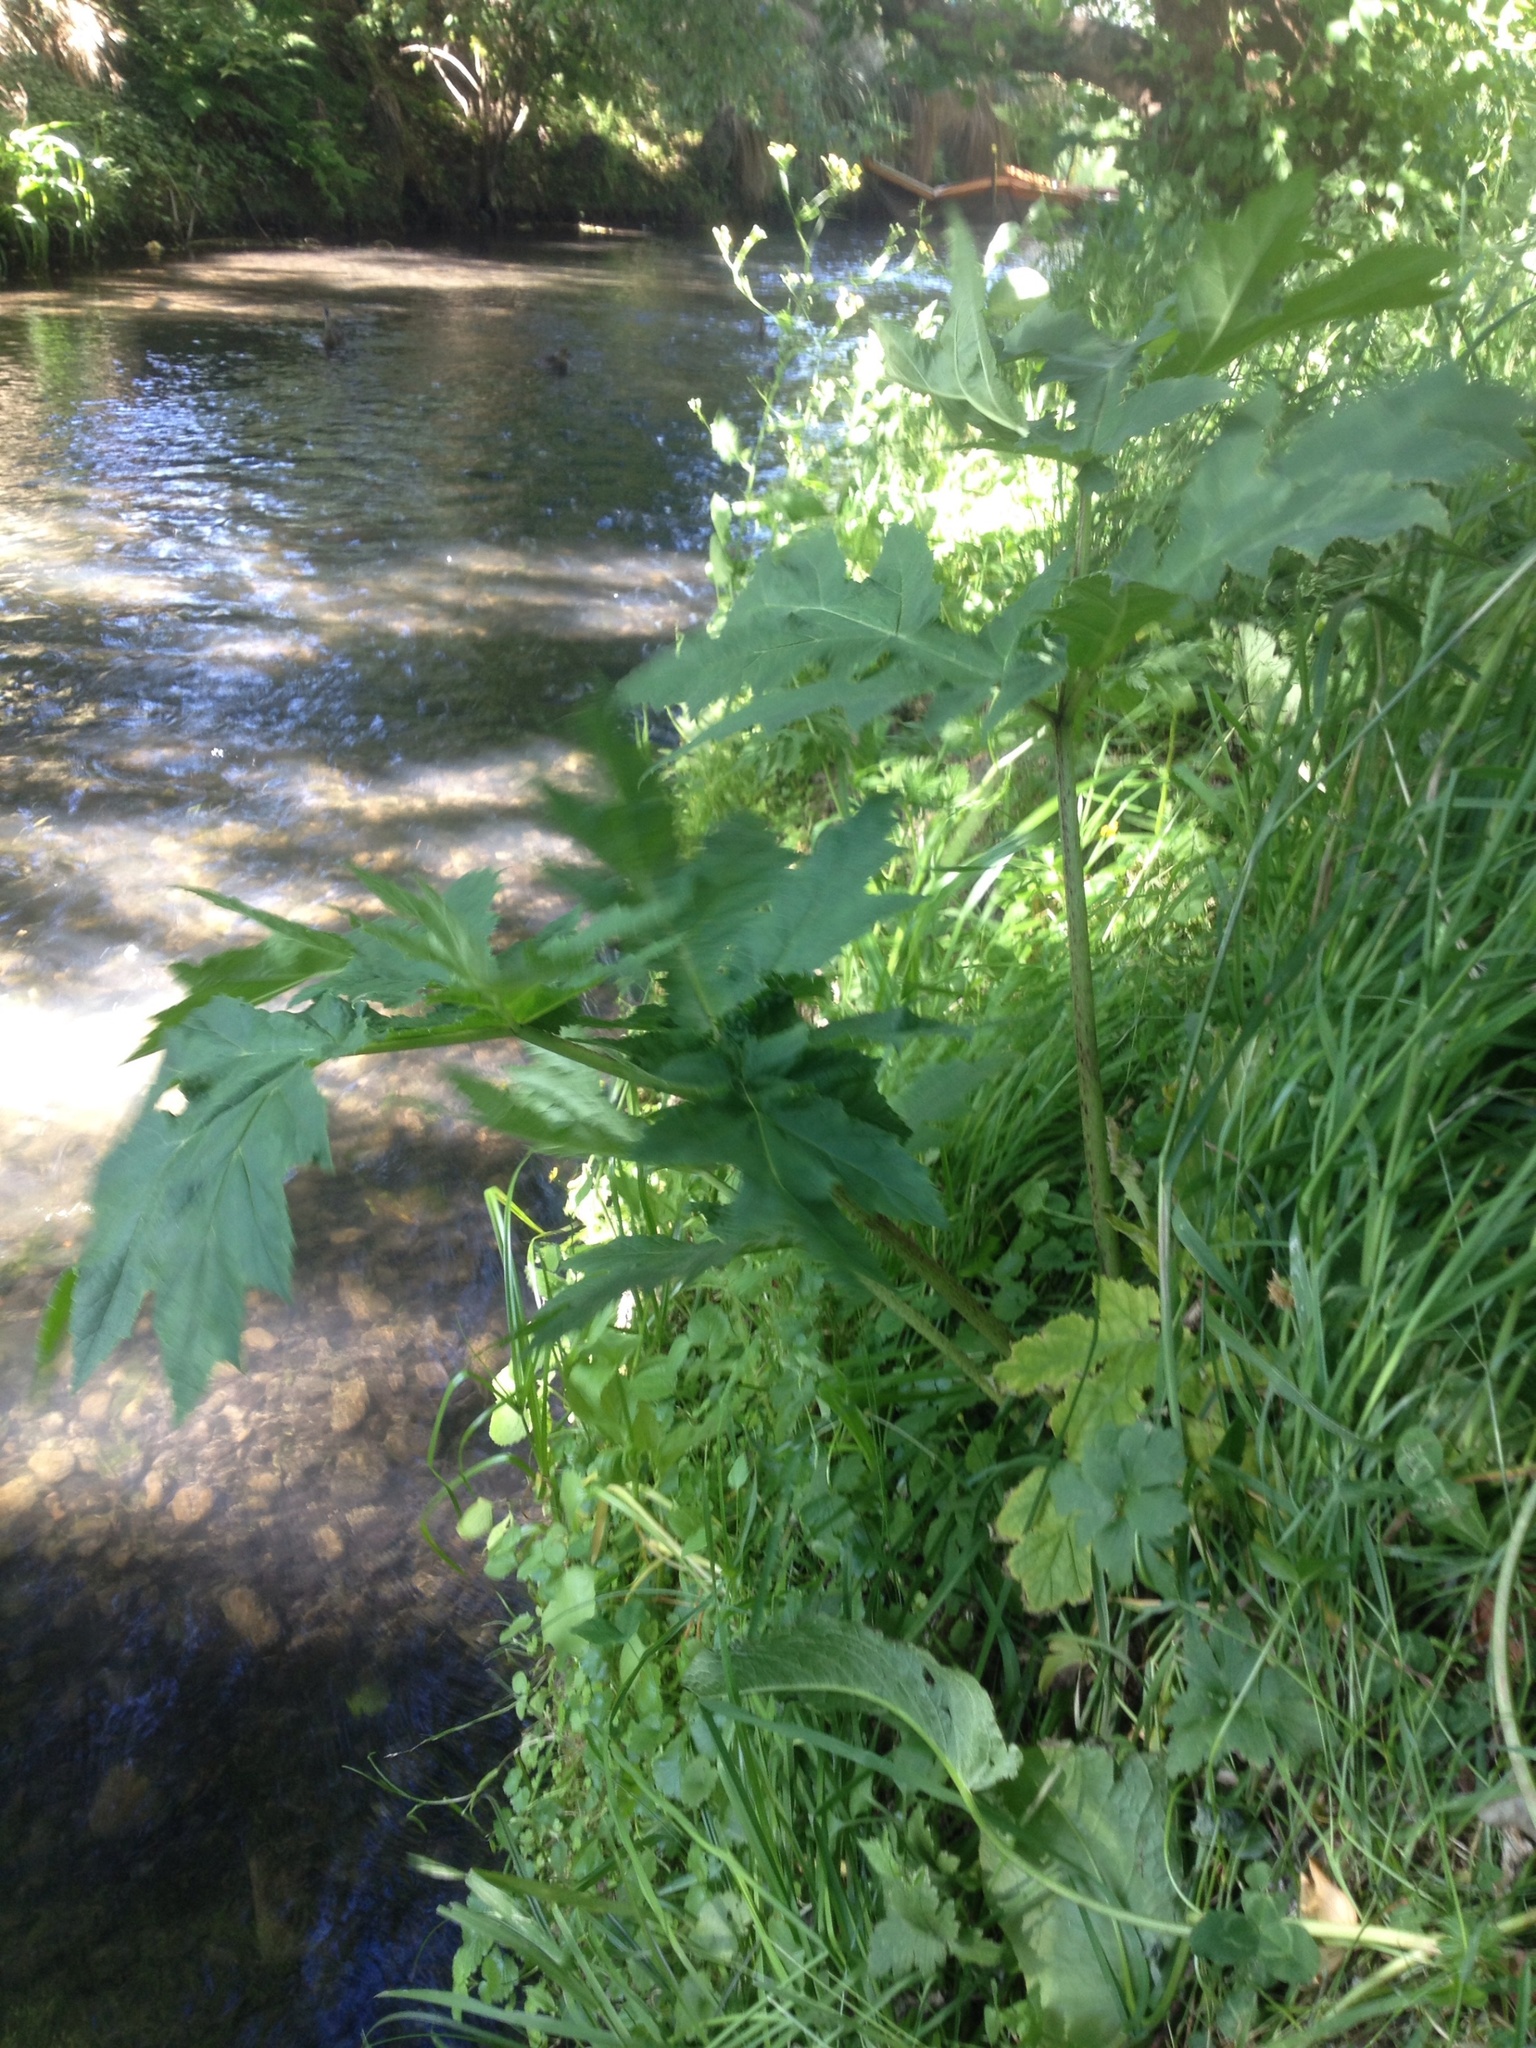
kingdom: Plantae
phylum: Tracheophyta
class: Magnoliopsida
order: Apiales
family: Apiaceae
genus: Heracleum
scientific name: Heracleum mantegazzianum
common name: Giant hogweed
